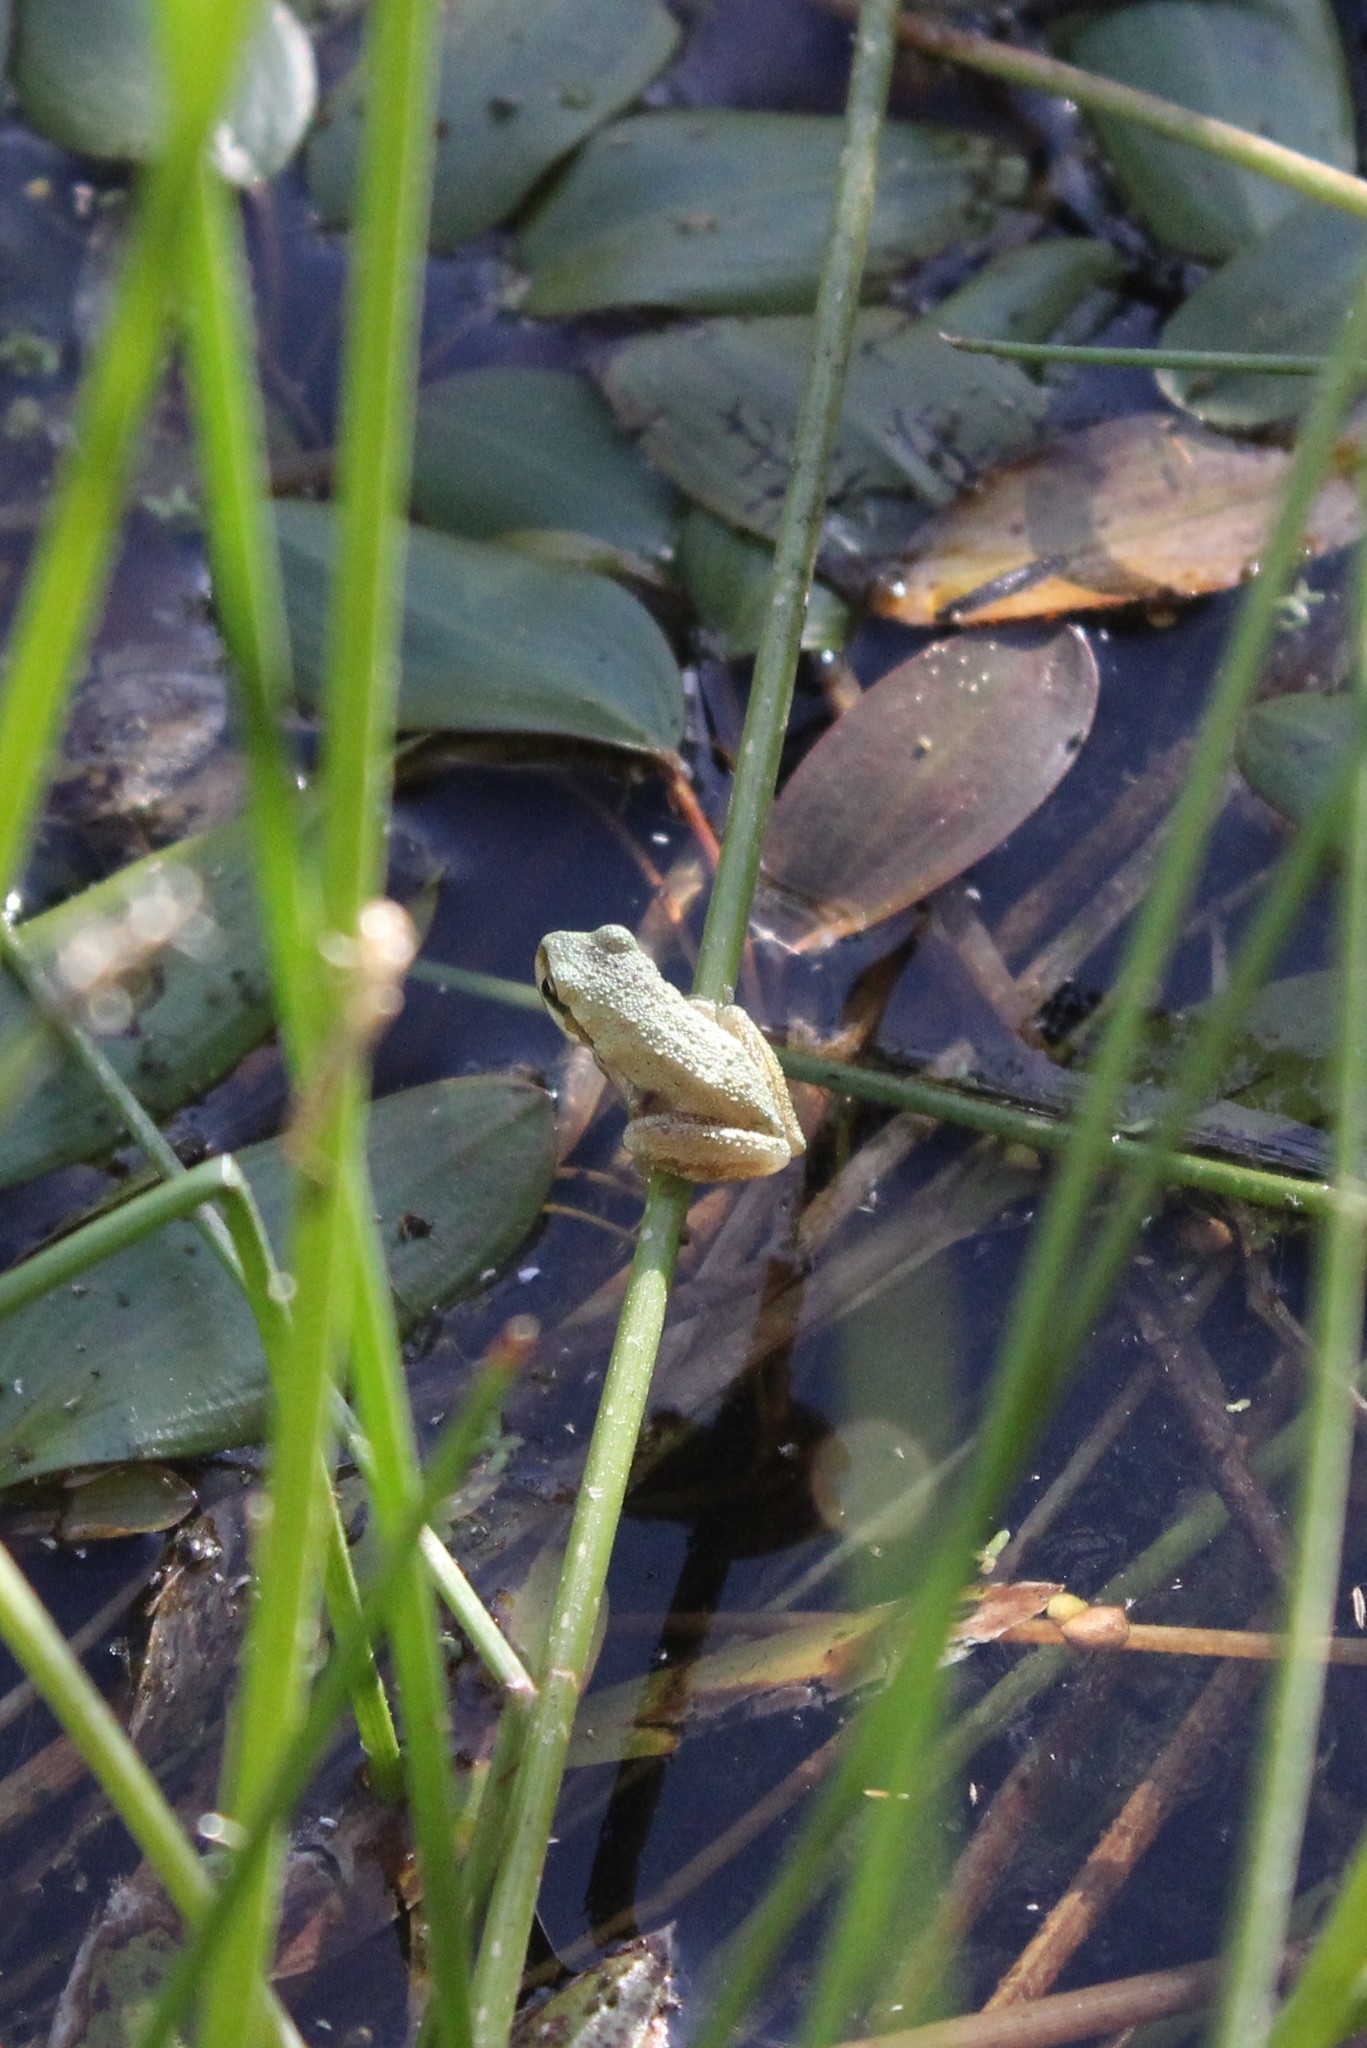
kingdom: Animalia
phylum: Chordata
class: Amphibia
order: Anura
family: Hylidae
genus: Pseudacris
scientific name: Pseudacris regilla
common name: Pacific chorus frog
